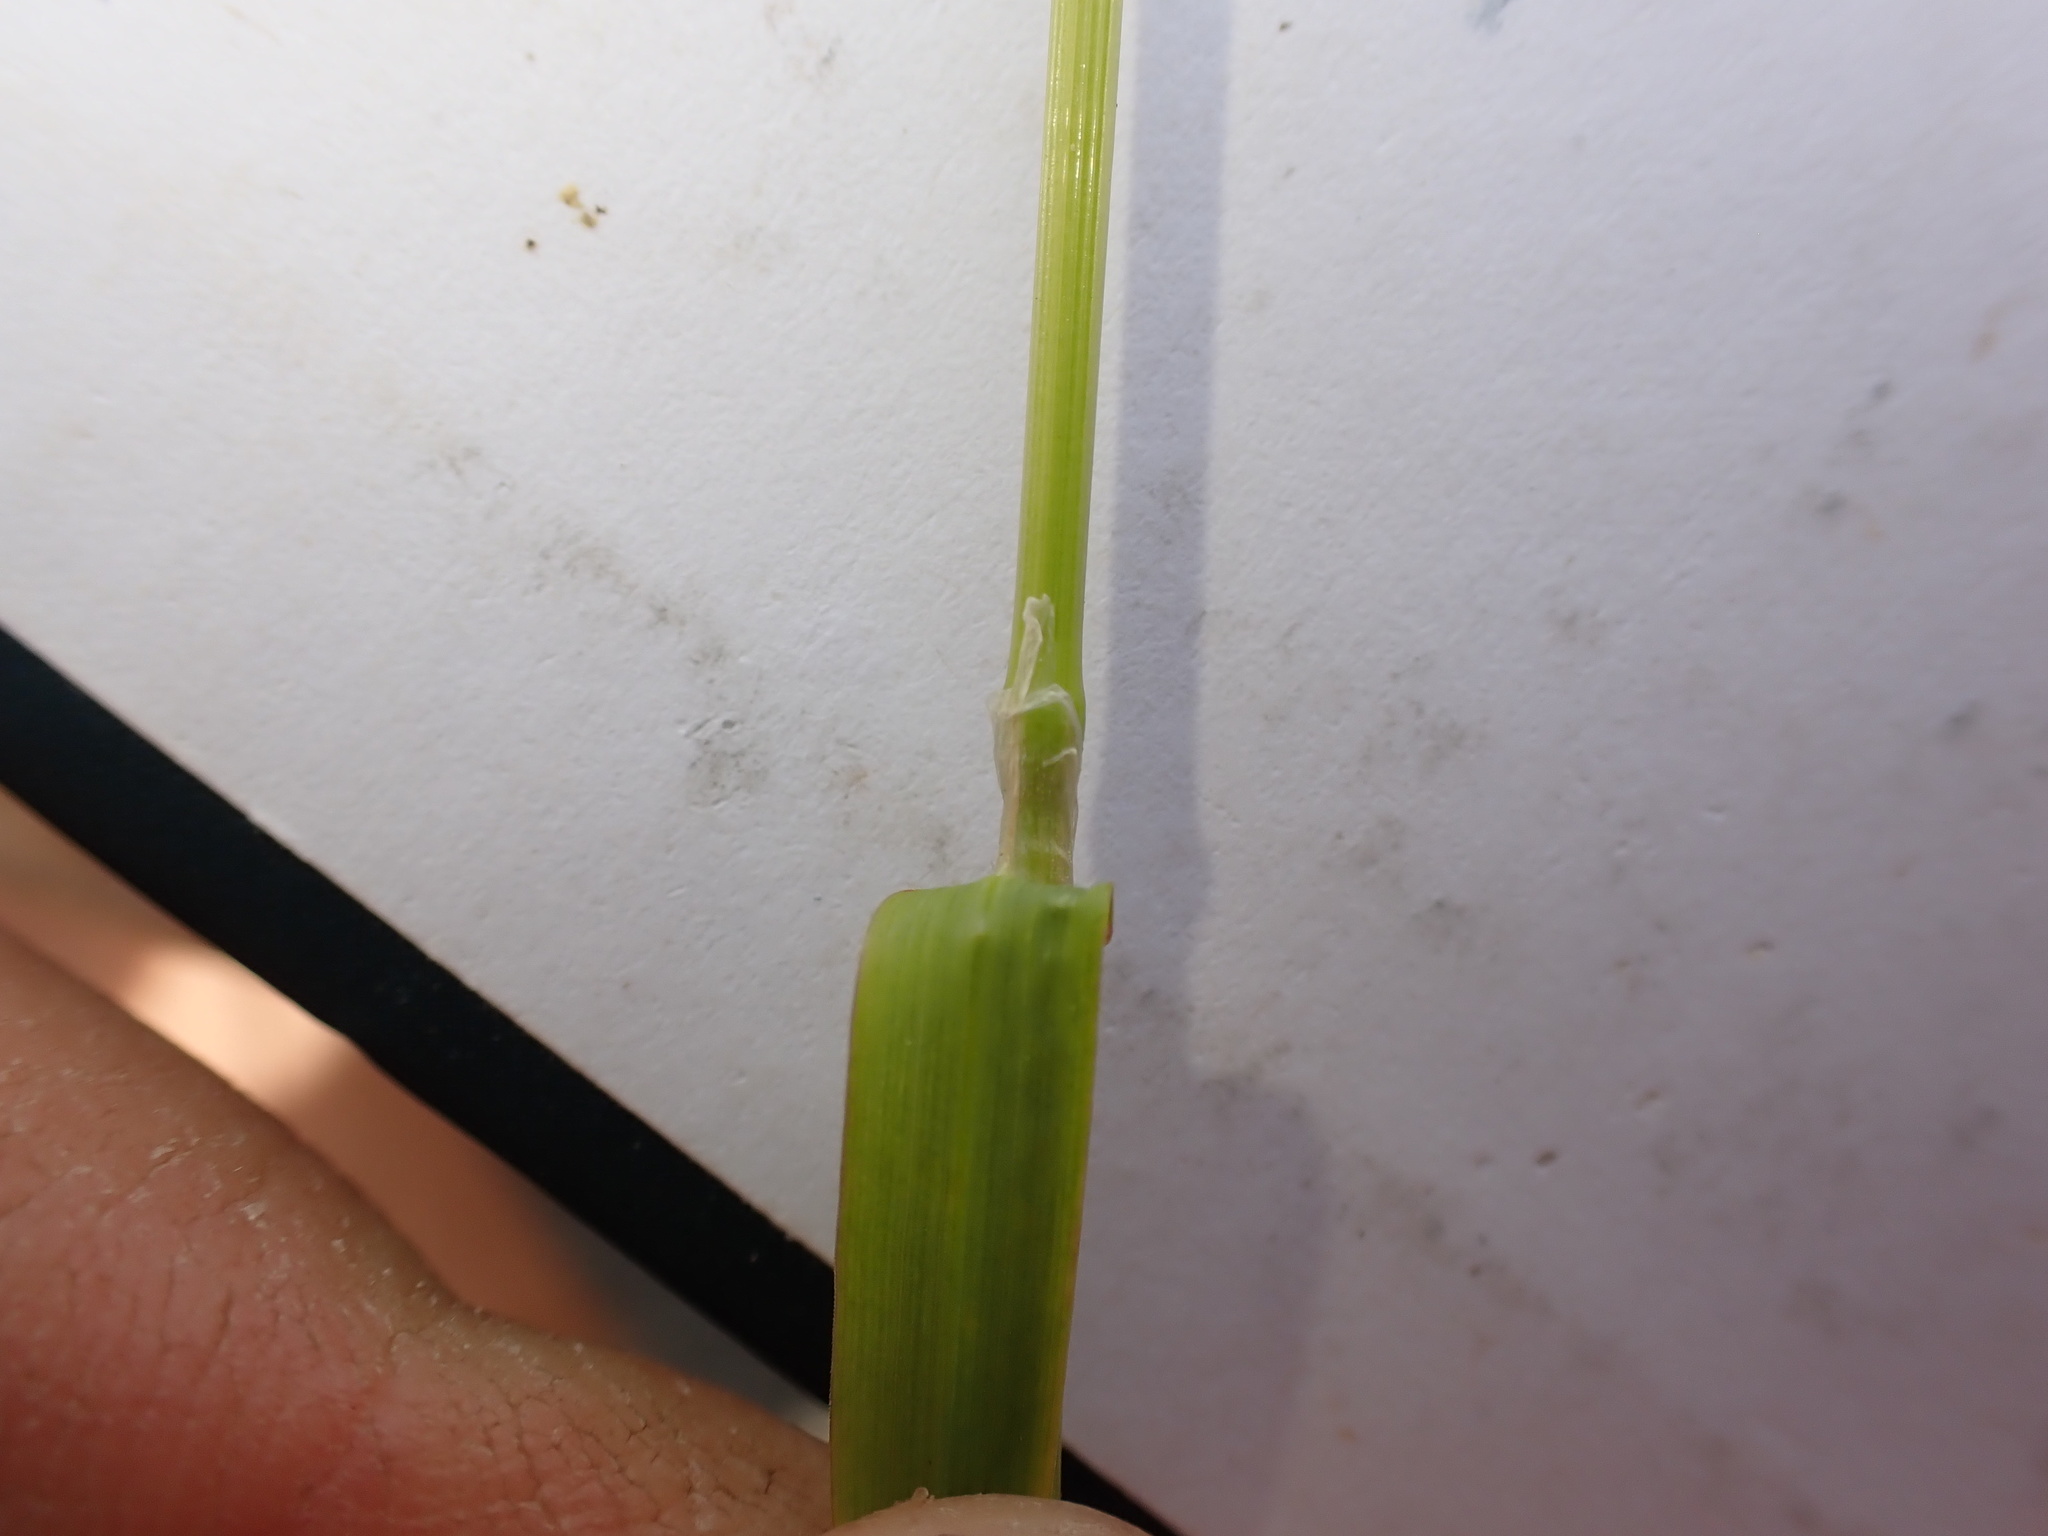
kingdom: Plantae
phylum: Tracheophyta
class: Liliopsida
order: Poales
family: Poaceae
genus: Poa
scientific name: Poa trivialis
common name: Rough bluegrass
